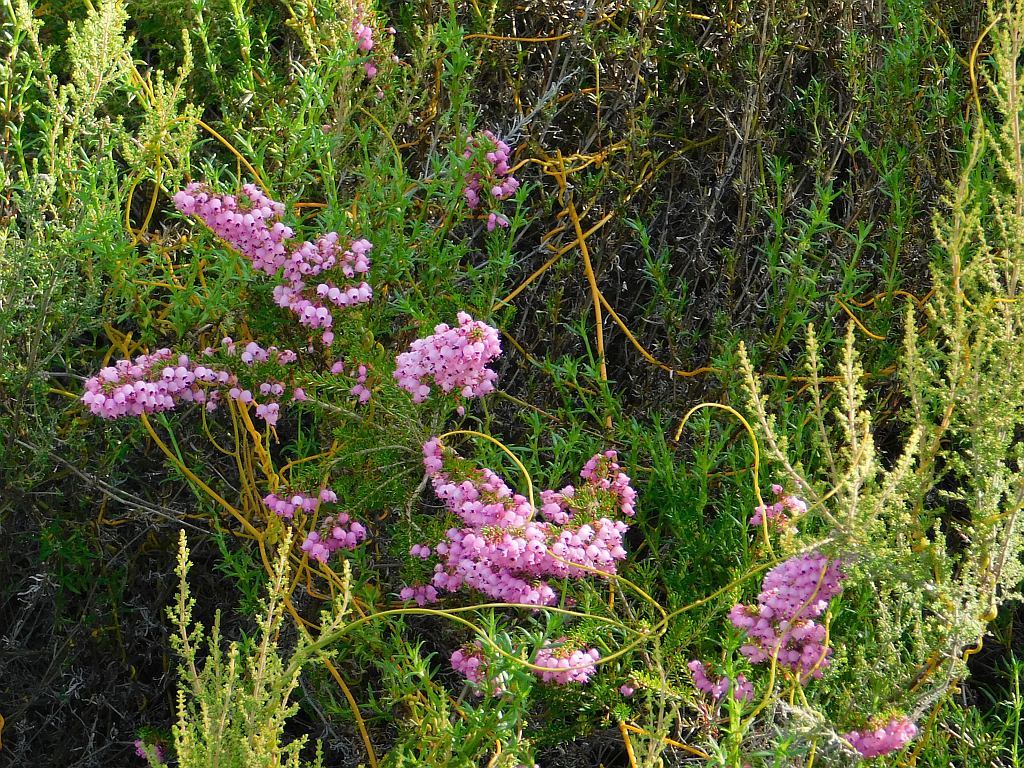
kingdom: Plantae
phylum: Tracheophyta
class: Magnoliopsida
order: Ericales
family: Ericaceae
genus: Erica
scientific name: Erica lateralis
